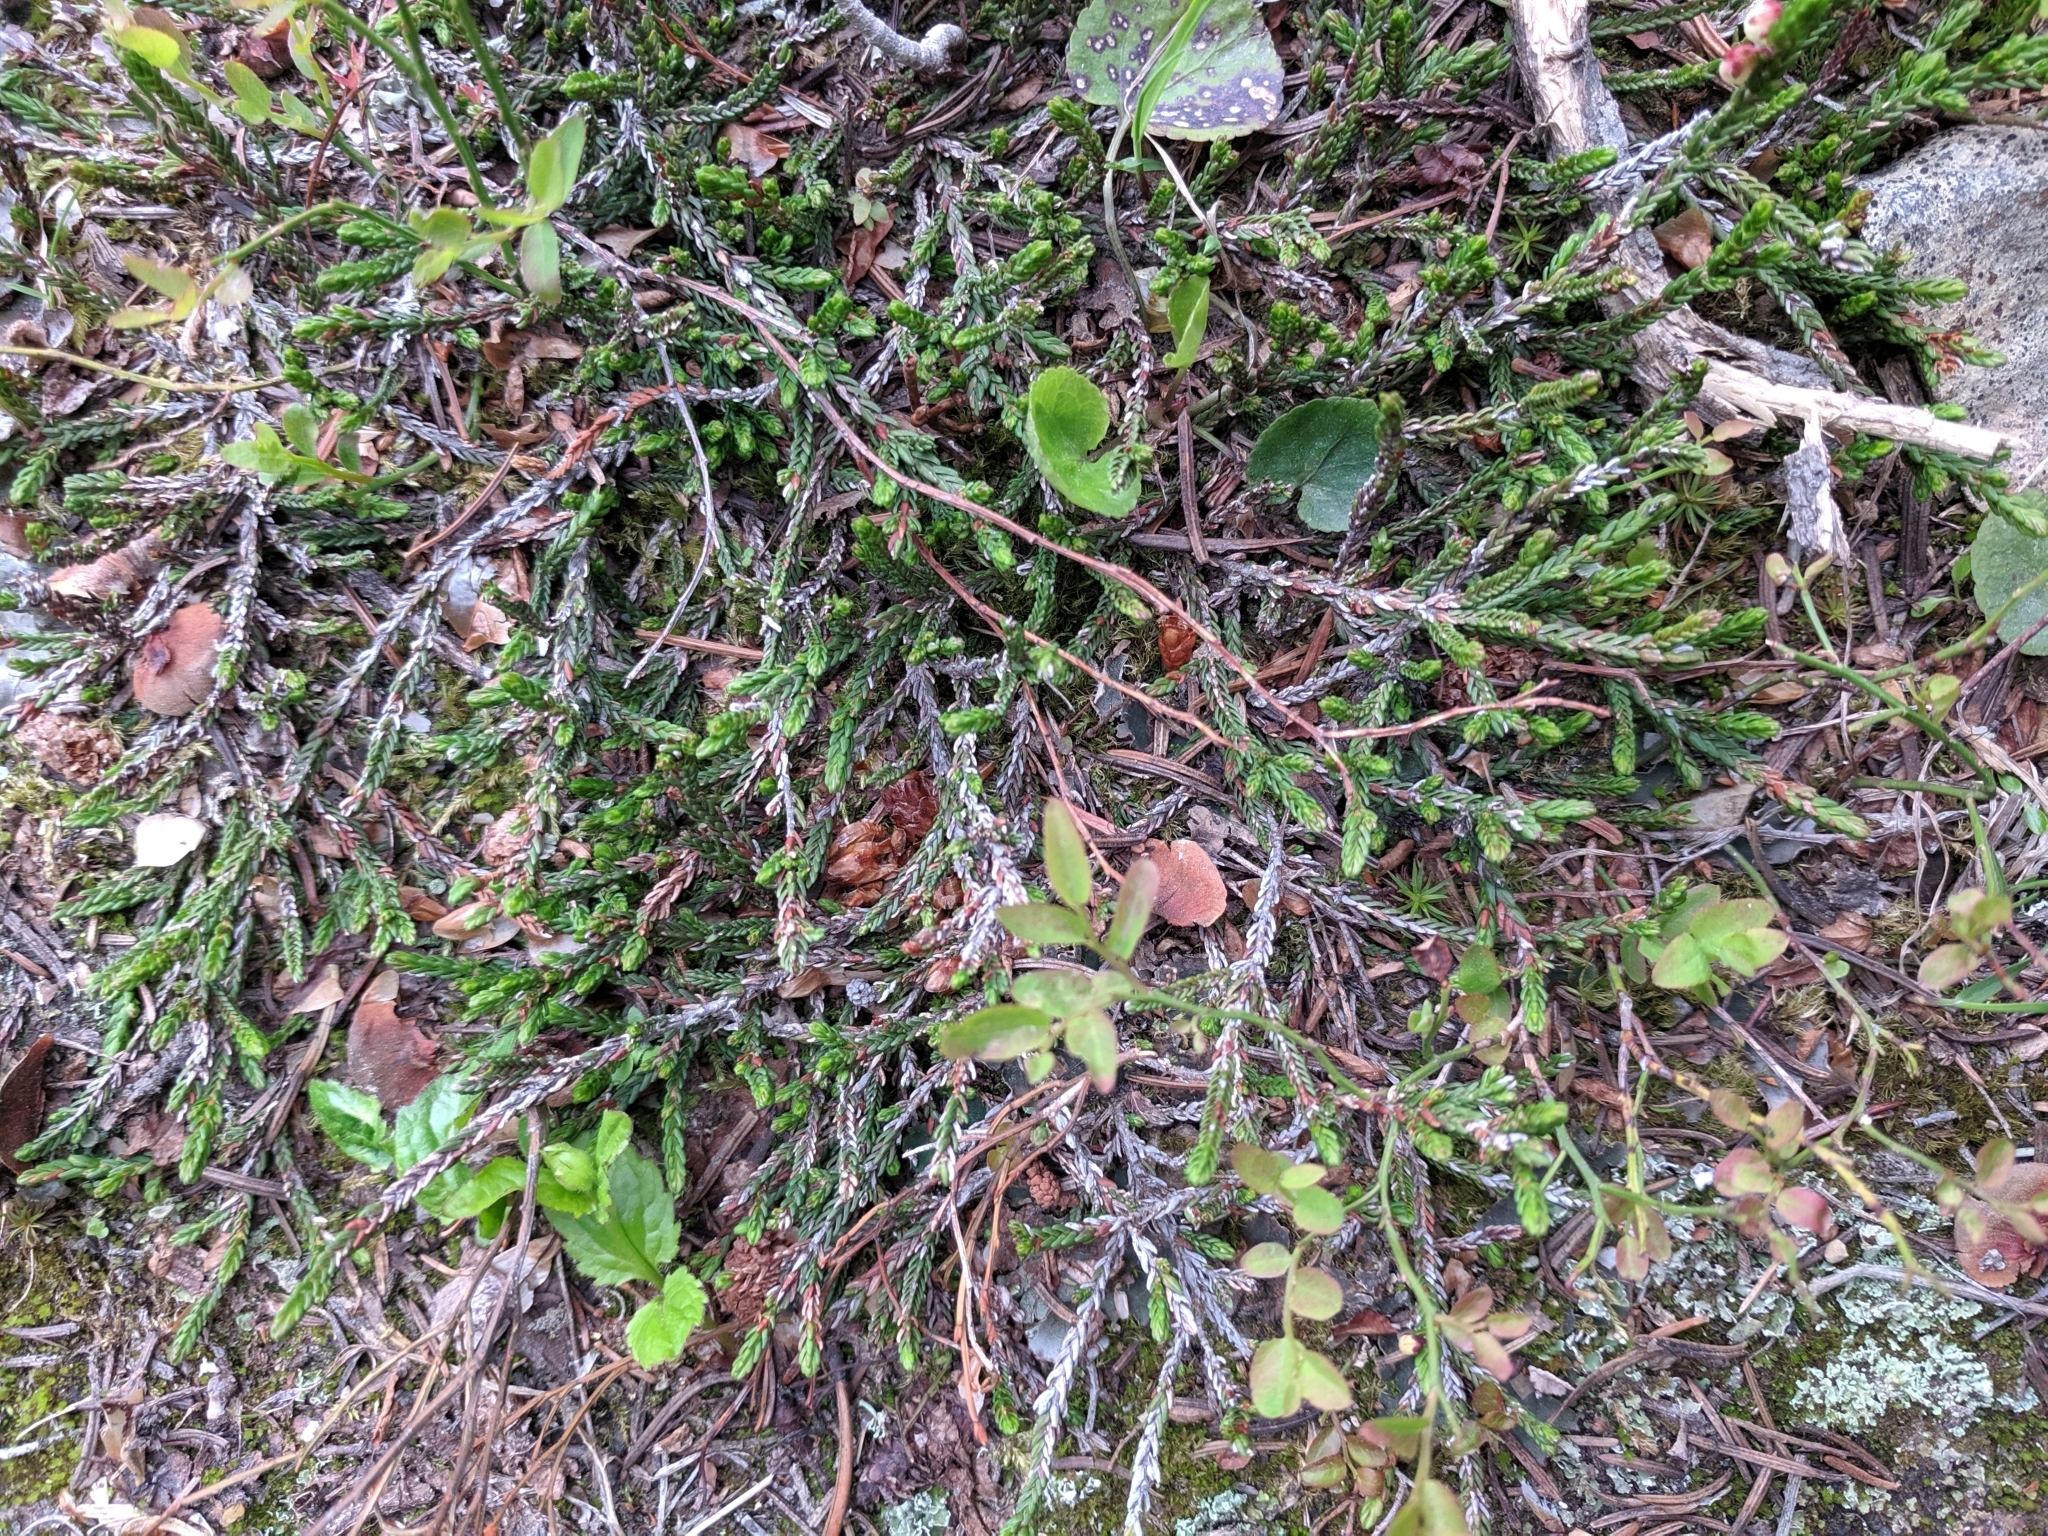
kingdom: Plantae
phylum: Tracheophyta
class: Magnoliopsida
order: Ericales
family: Ericaceae
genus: Cassiope
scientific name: Cassiope mertensiana
